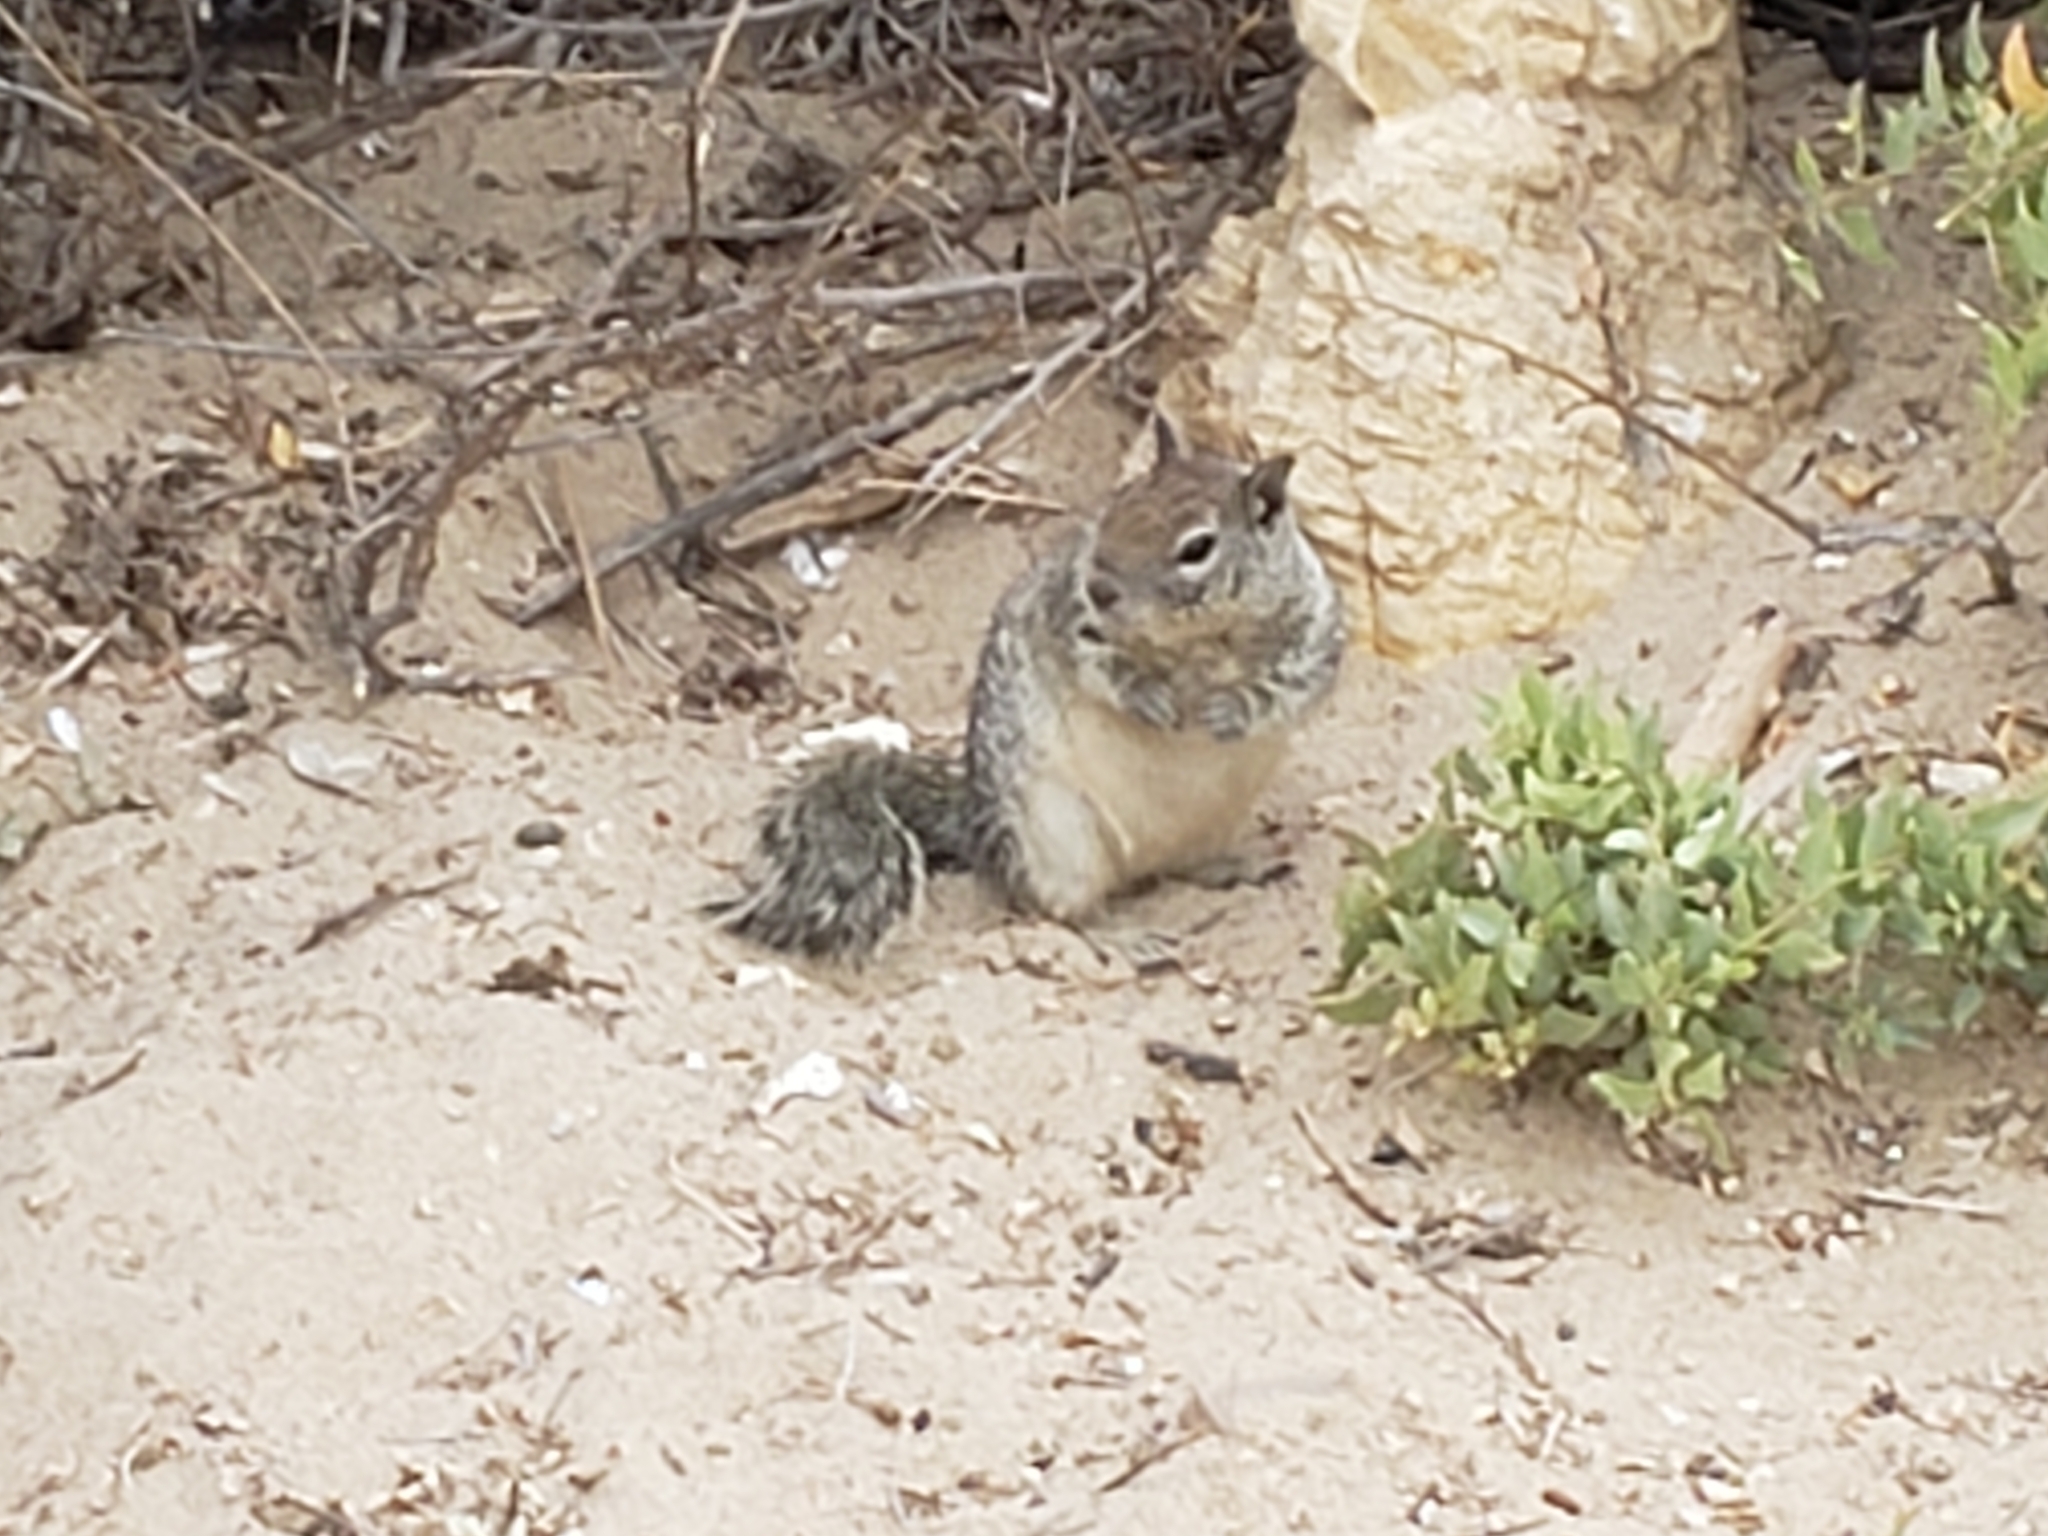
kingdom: Animalia
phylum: Chordata
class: Mammalia
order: Rodentia
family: Sciuridae
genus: Otospermophilus
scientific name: Otospermophilus beecheyi
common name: California ground squirrel
